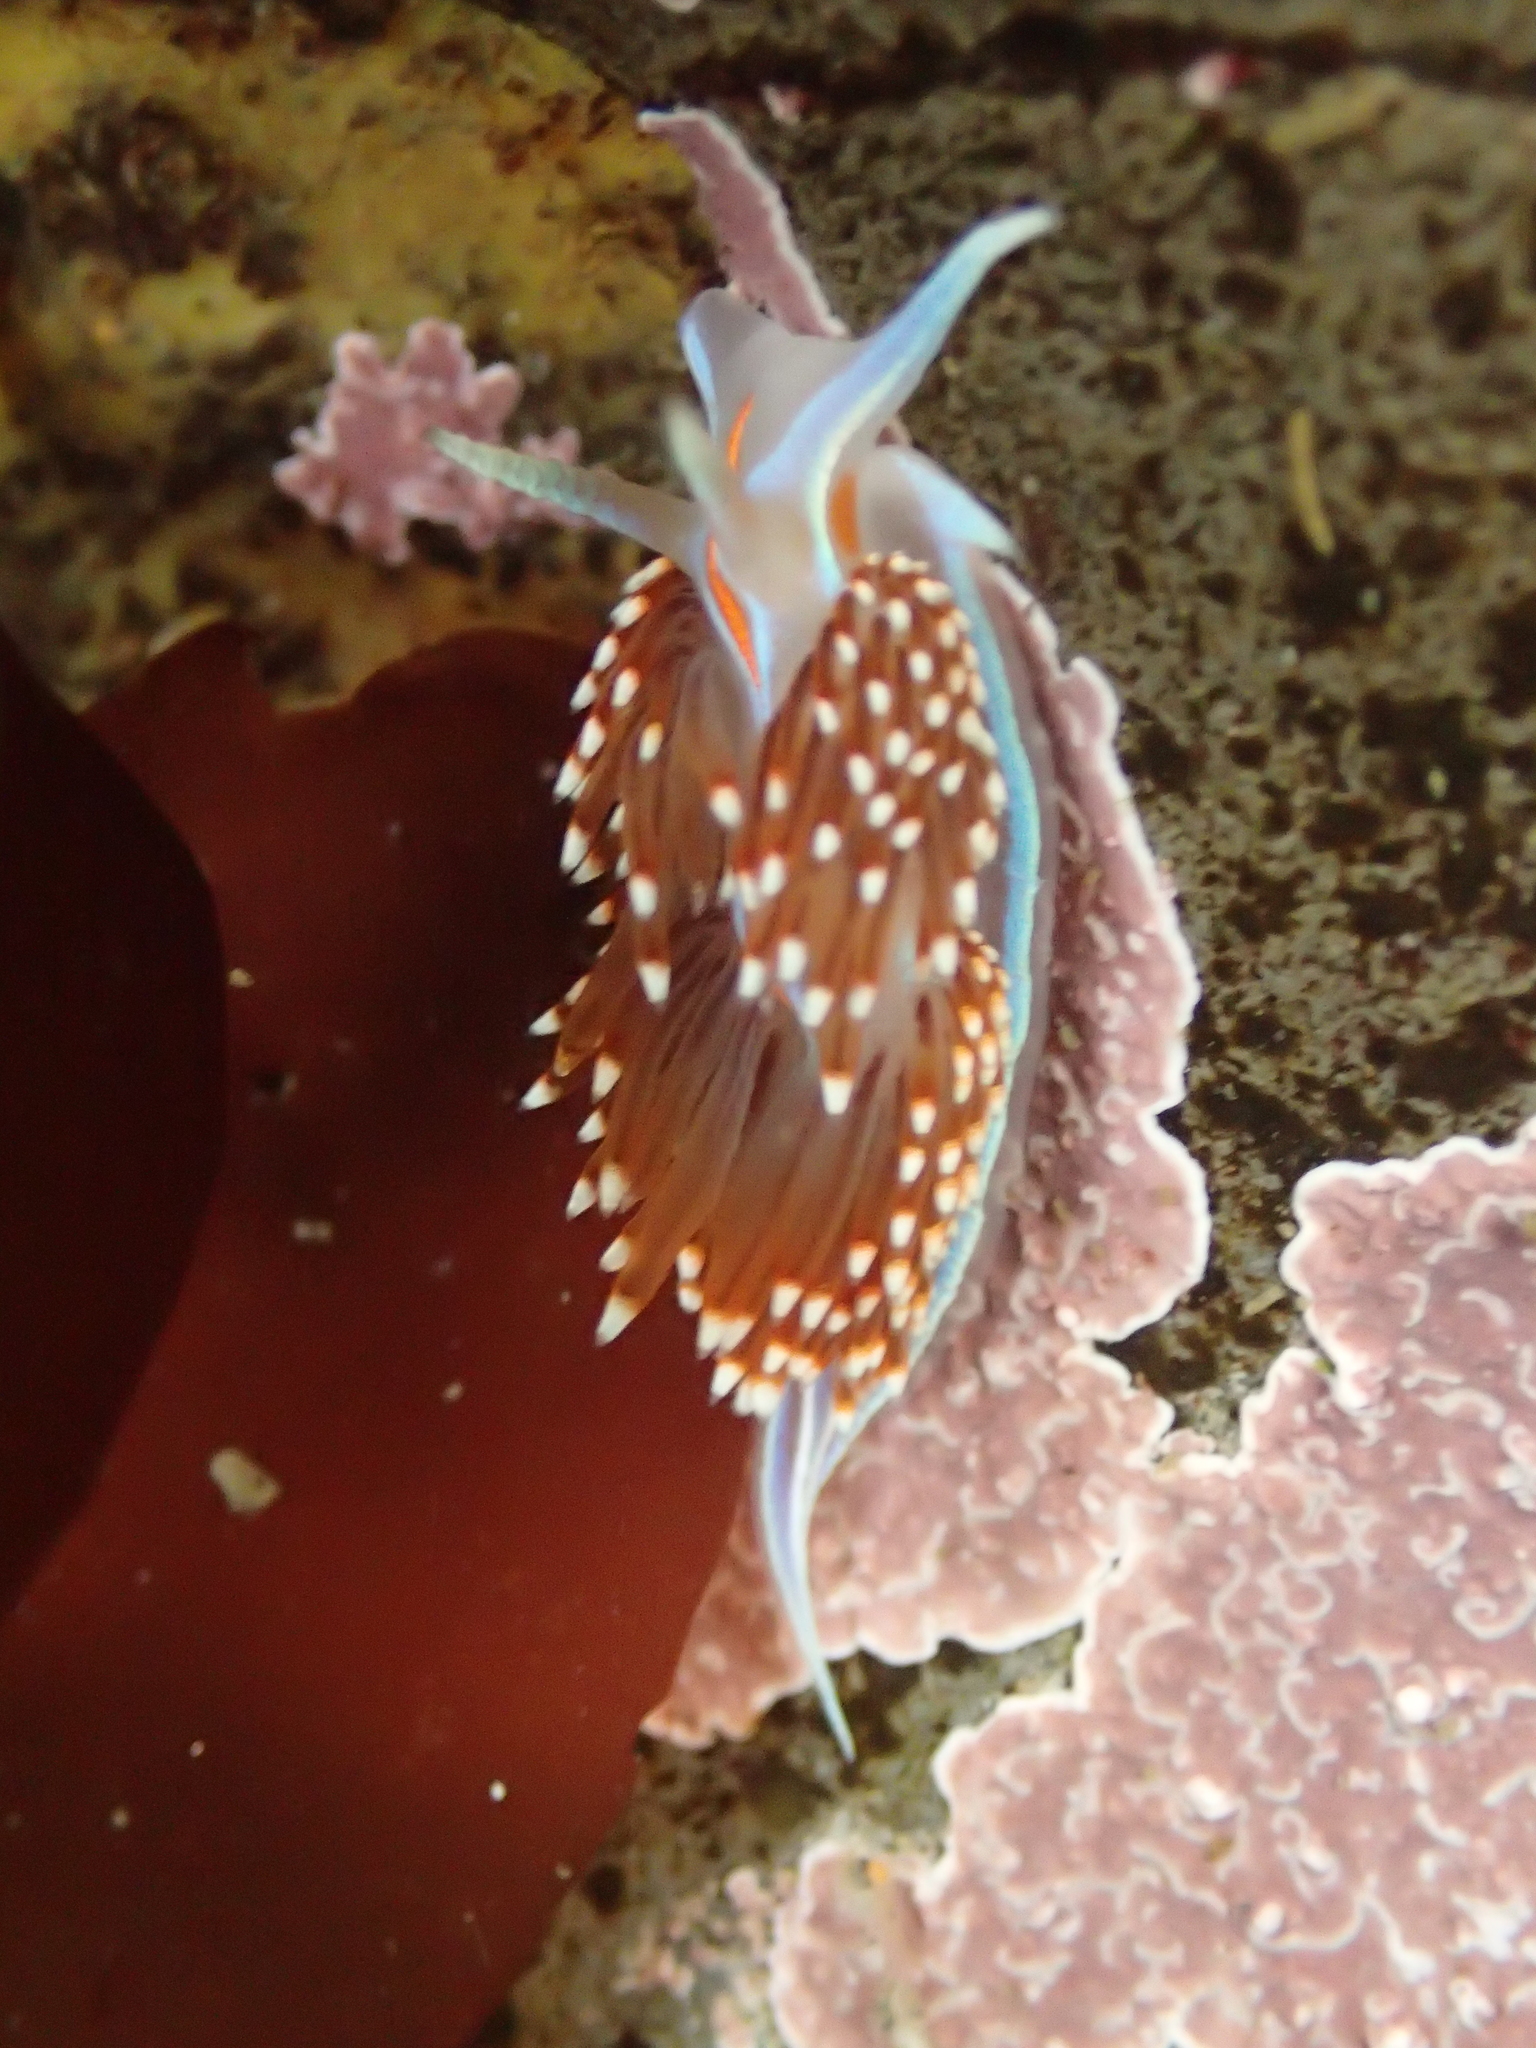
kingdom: Animalia
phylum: Mollusca
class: Gastropoda
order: Nudibranchia
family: Myrrhinidae
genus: Hermissenda
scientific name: Hermissenda opalescens
